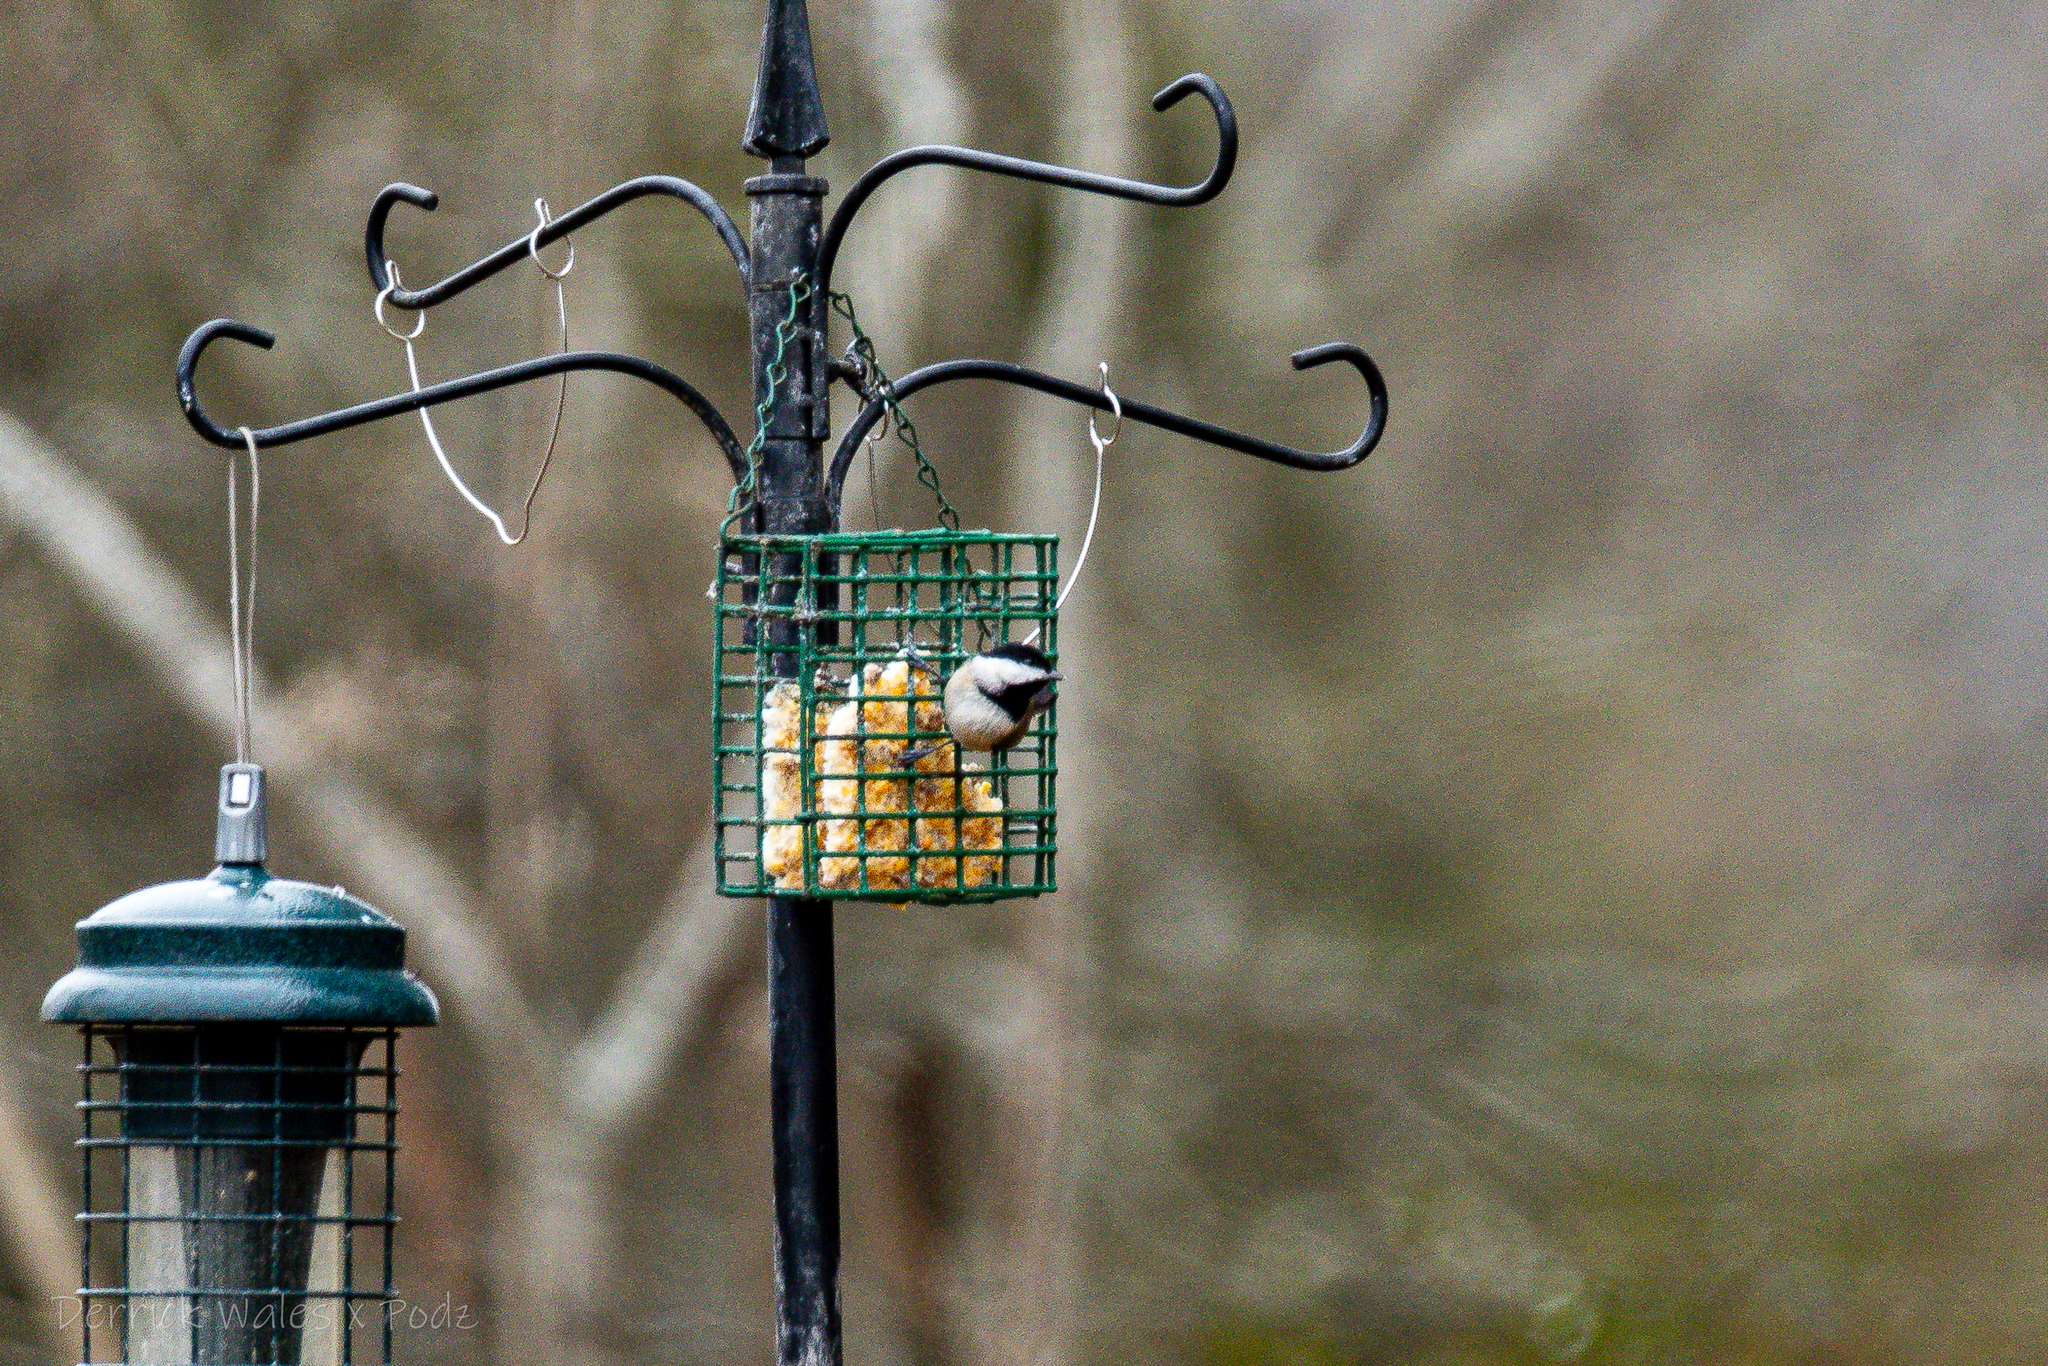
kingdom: Animalia
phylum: Chordata
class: Aves
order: Passeriformes
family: Paridae
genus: Poecile
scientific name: Poecile carolinensis
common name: Carolina chickadee
